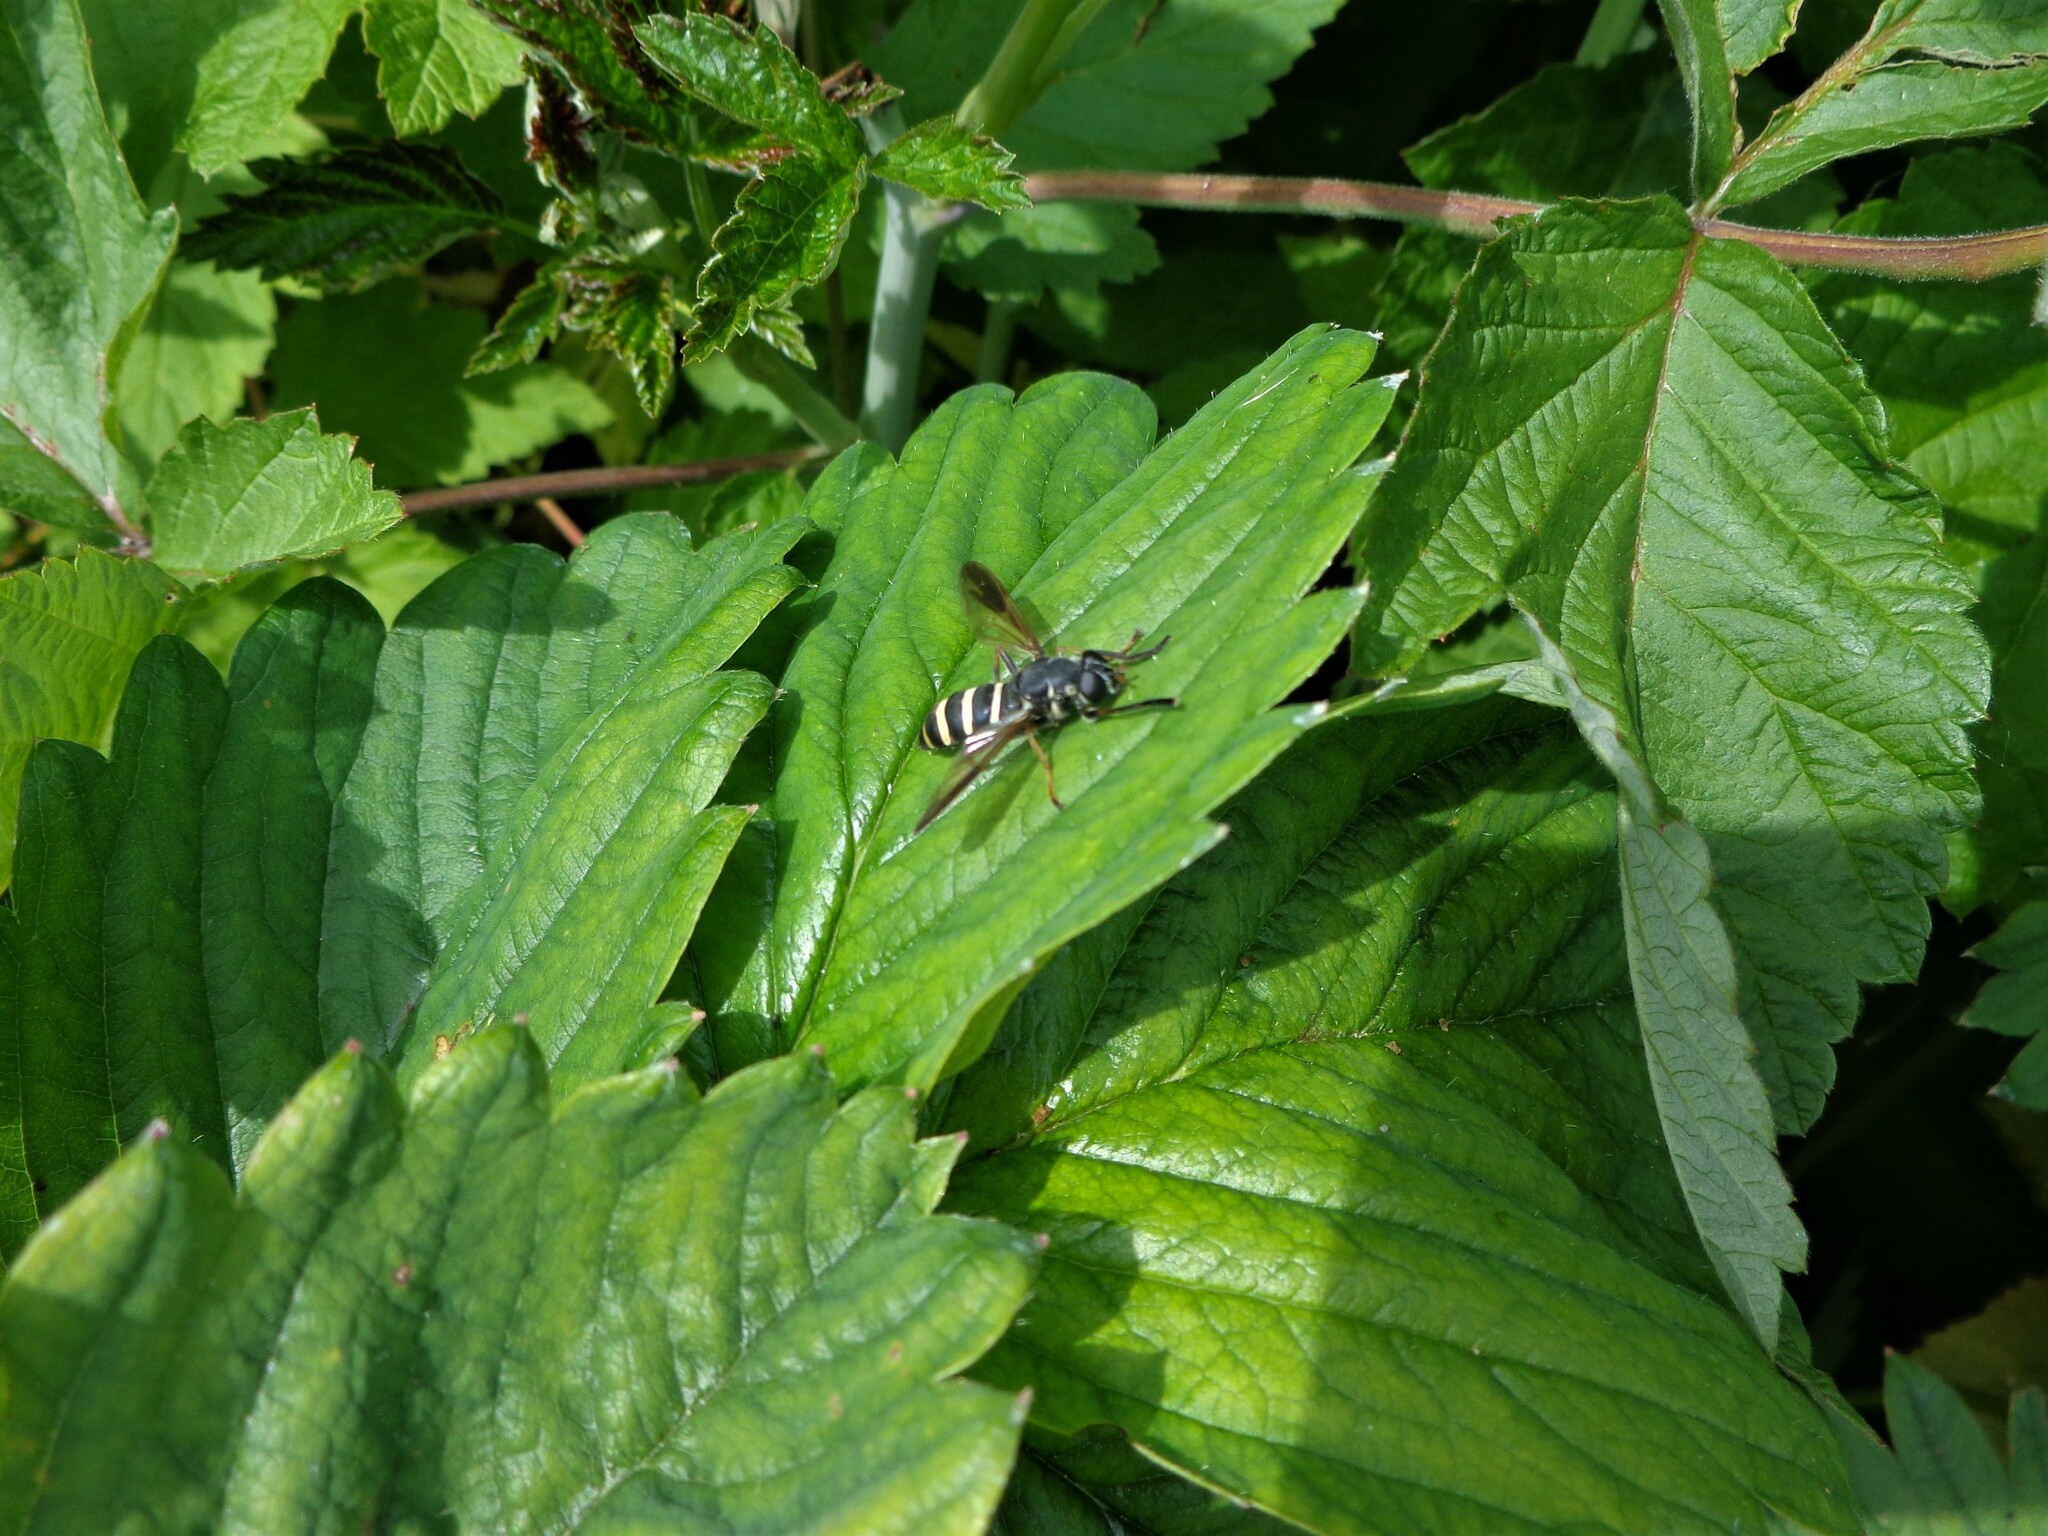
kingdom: Animalia
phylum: Arthropoda
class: Insecta
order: Diptera
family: Syrphidae
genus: Temnostoma
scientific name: Temnostoma bombylans
